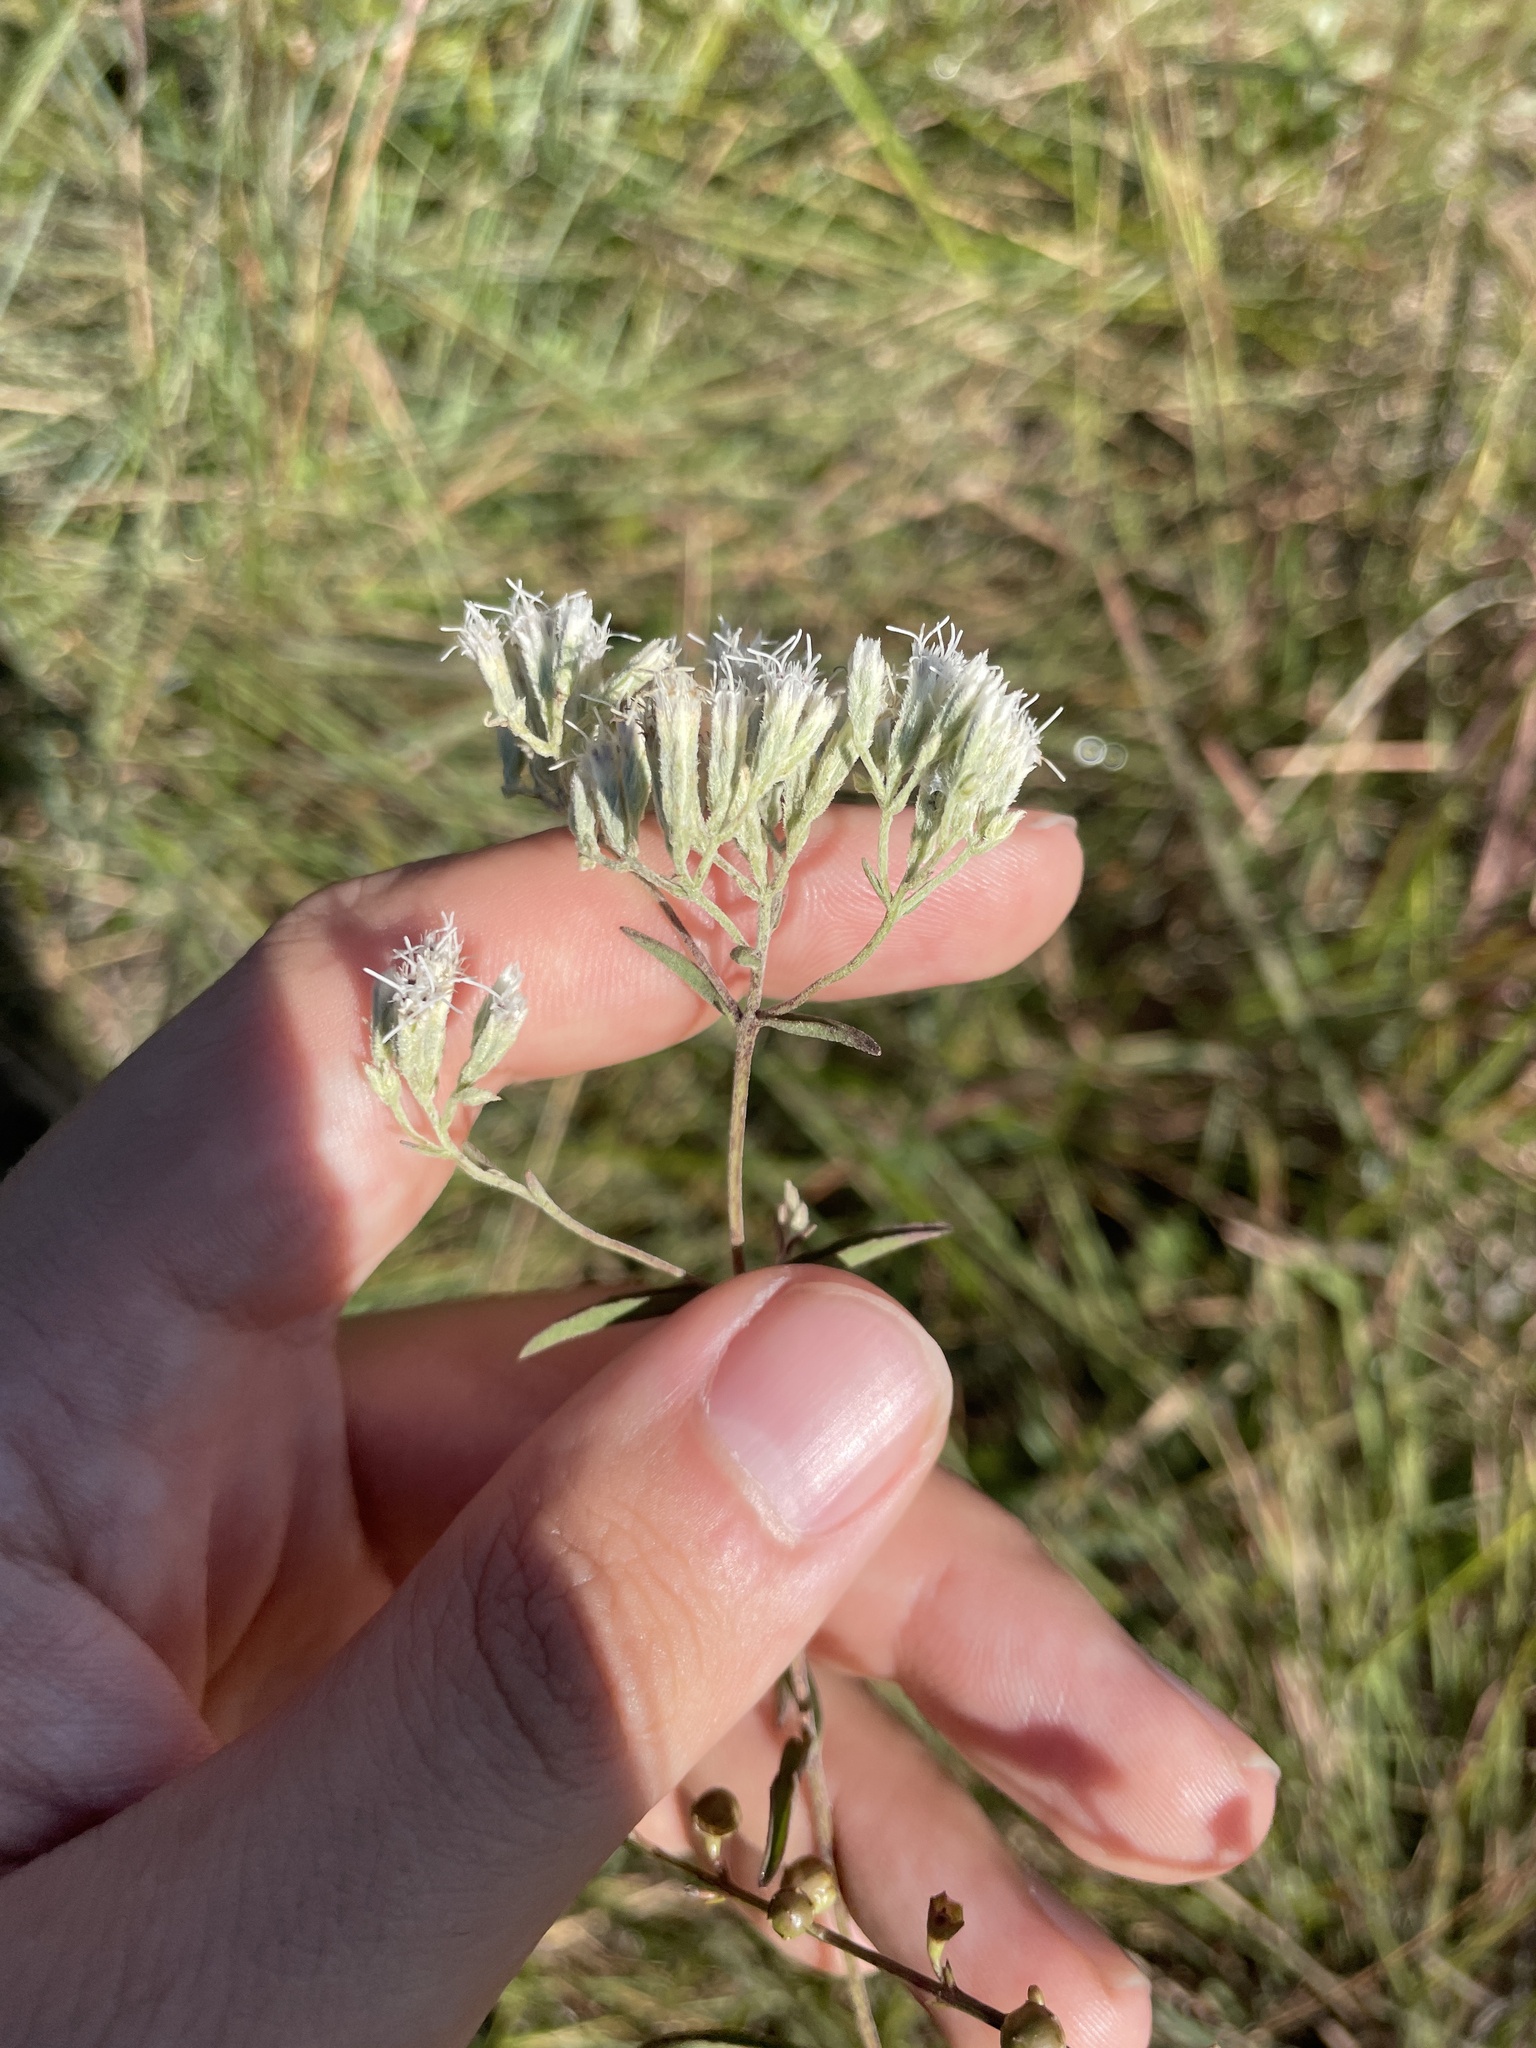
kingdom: Plantae
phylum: Tracheophyta
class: Magnoliopsida
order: Asterales
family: Asteraceae
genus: Eupatorium
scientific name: Eupatorium leucolepis
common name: Justiceweed
